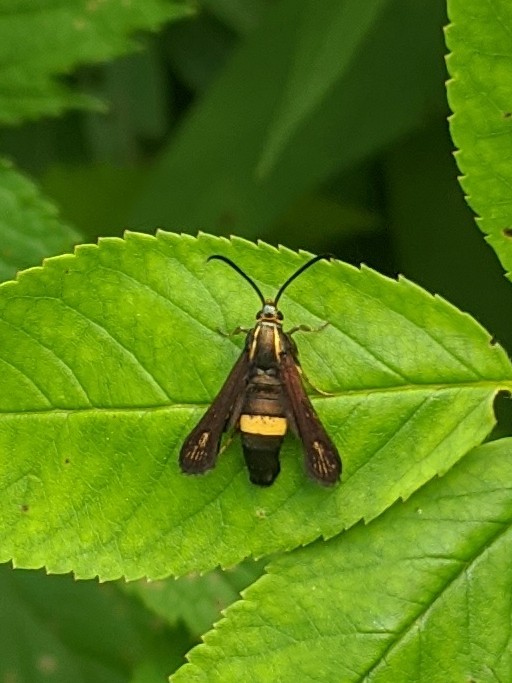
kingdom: Animalia
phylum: Arthropoda
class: Insecta
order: Lepidoptera
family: Sesiidae
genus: Carmenta
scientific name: Carmenta pyralidiformis
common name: Boneset borer moth
